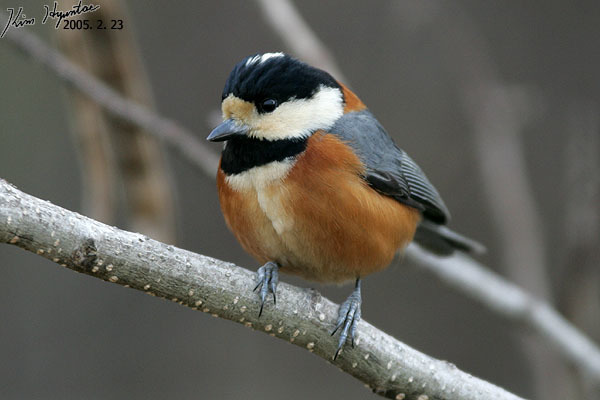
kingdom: Animalia
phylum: Chordata
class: Aves
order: Passeriformes
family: Paridae
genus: Poecile
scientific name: Poecile varius
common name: Varied tit
